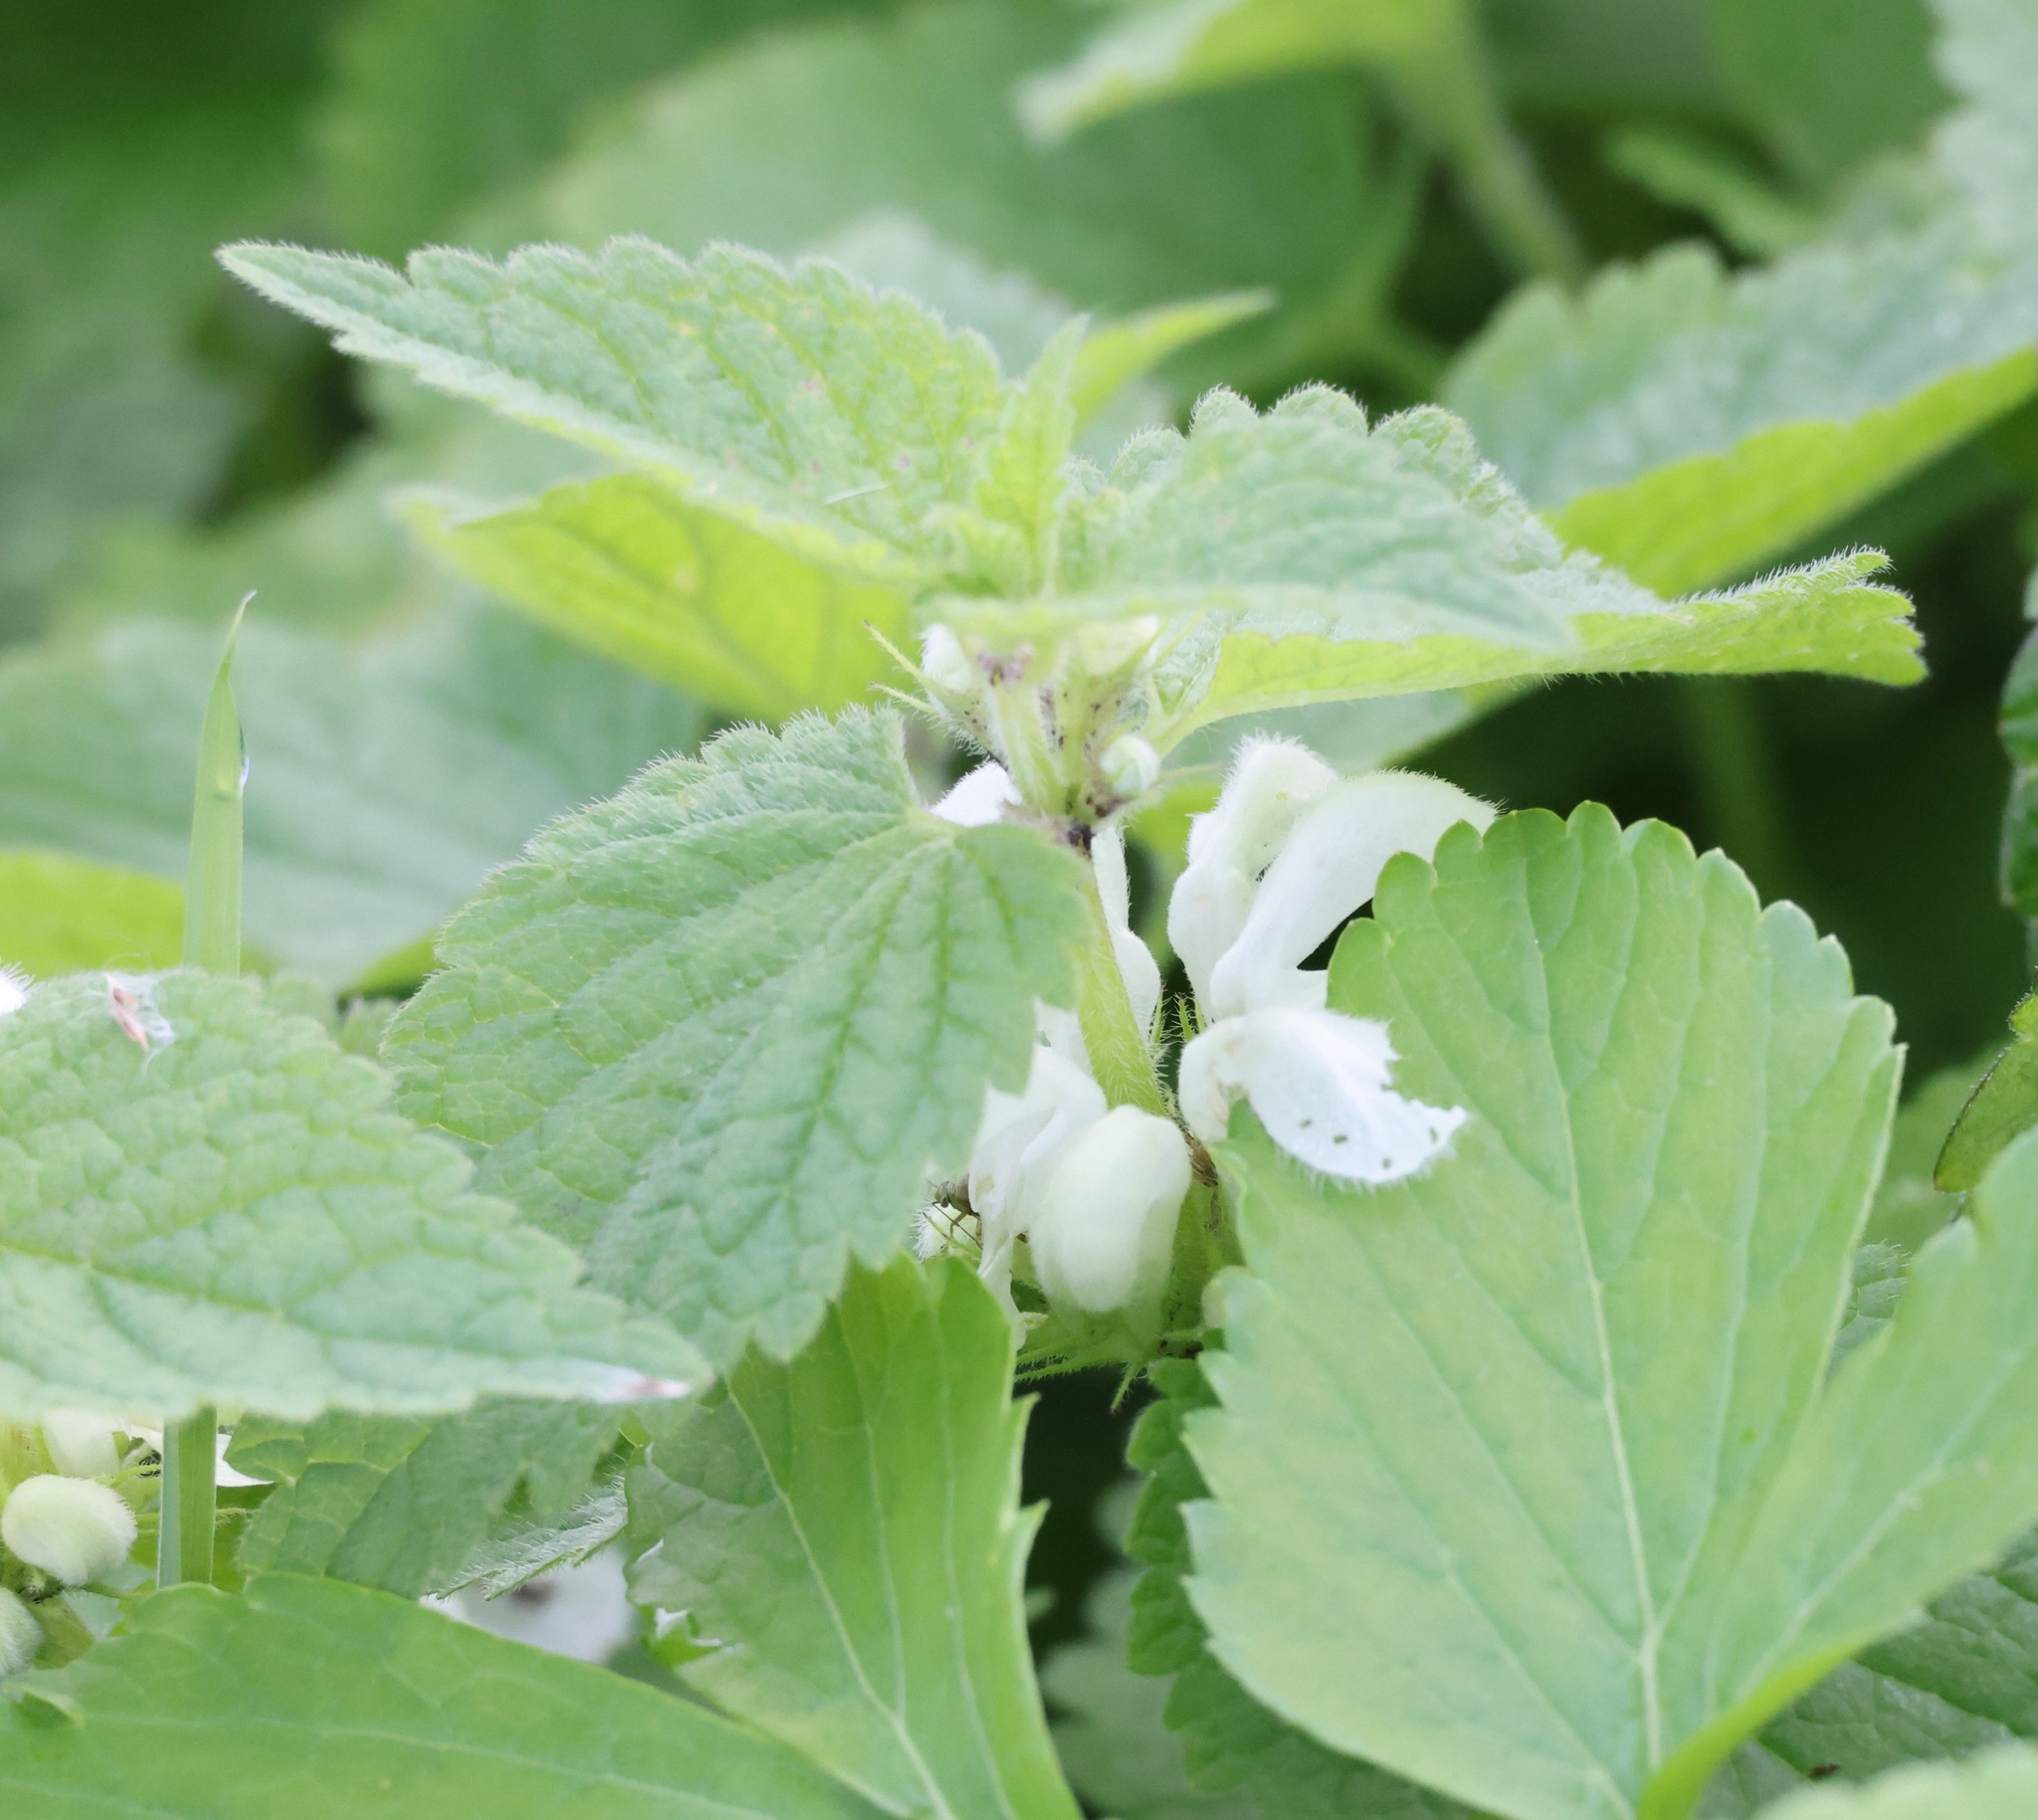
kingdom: Plantae
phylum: Tracheophyta
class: Magnoliopsida
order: Lamiales
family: Lamiaceae
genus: Lamium
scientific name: Lamium album
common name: White dead-nettle
